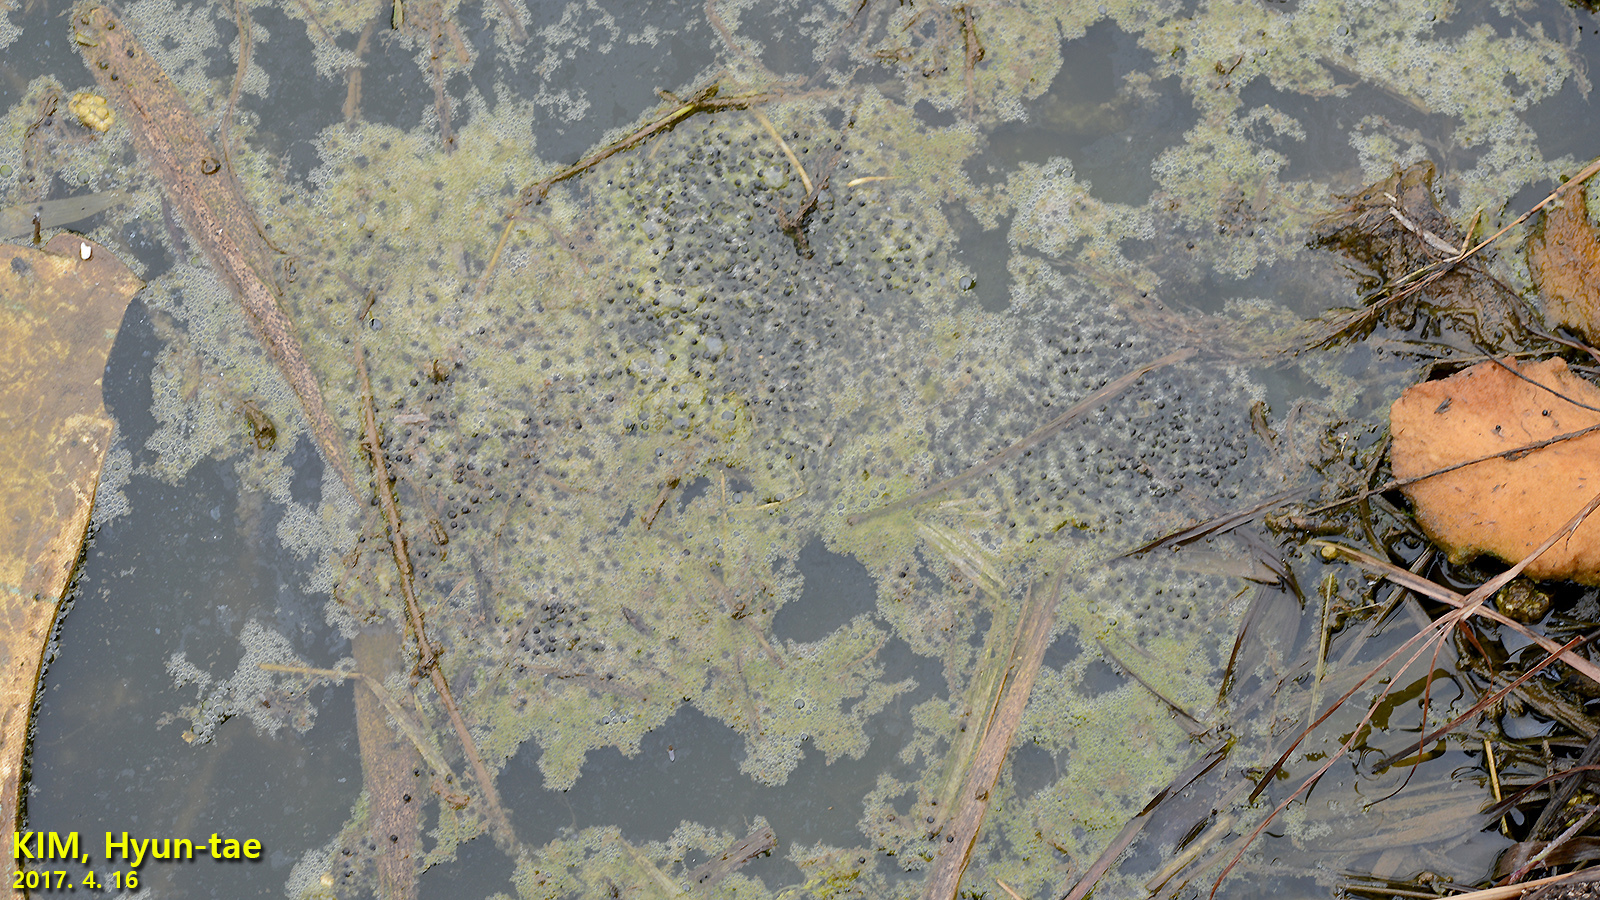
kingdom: Animalia
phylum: Chordata
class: Amphibia
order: Anura
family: Ranidae
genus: Pelophylax
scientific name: Pelophylax nigromaculatus
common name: Black-spotted pond frog
